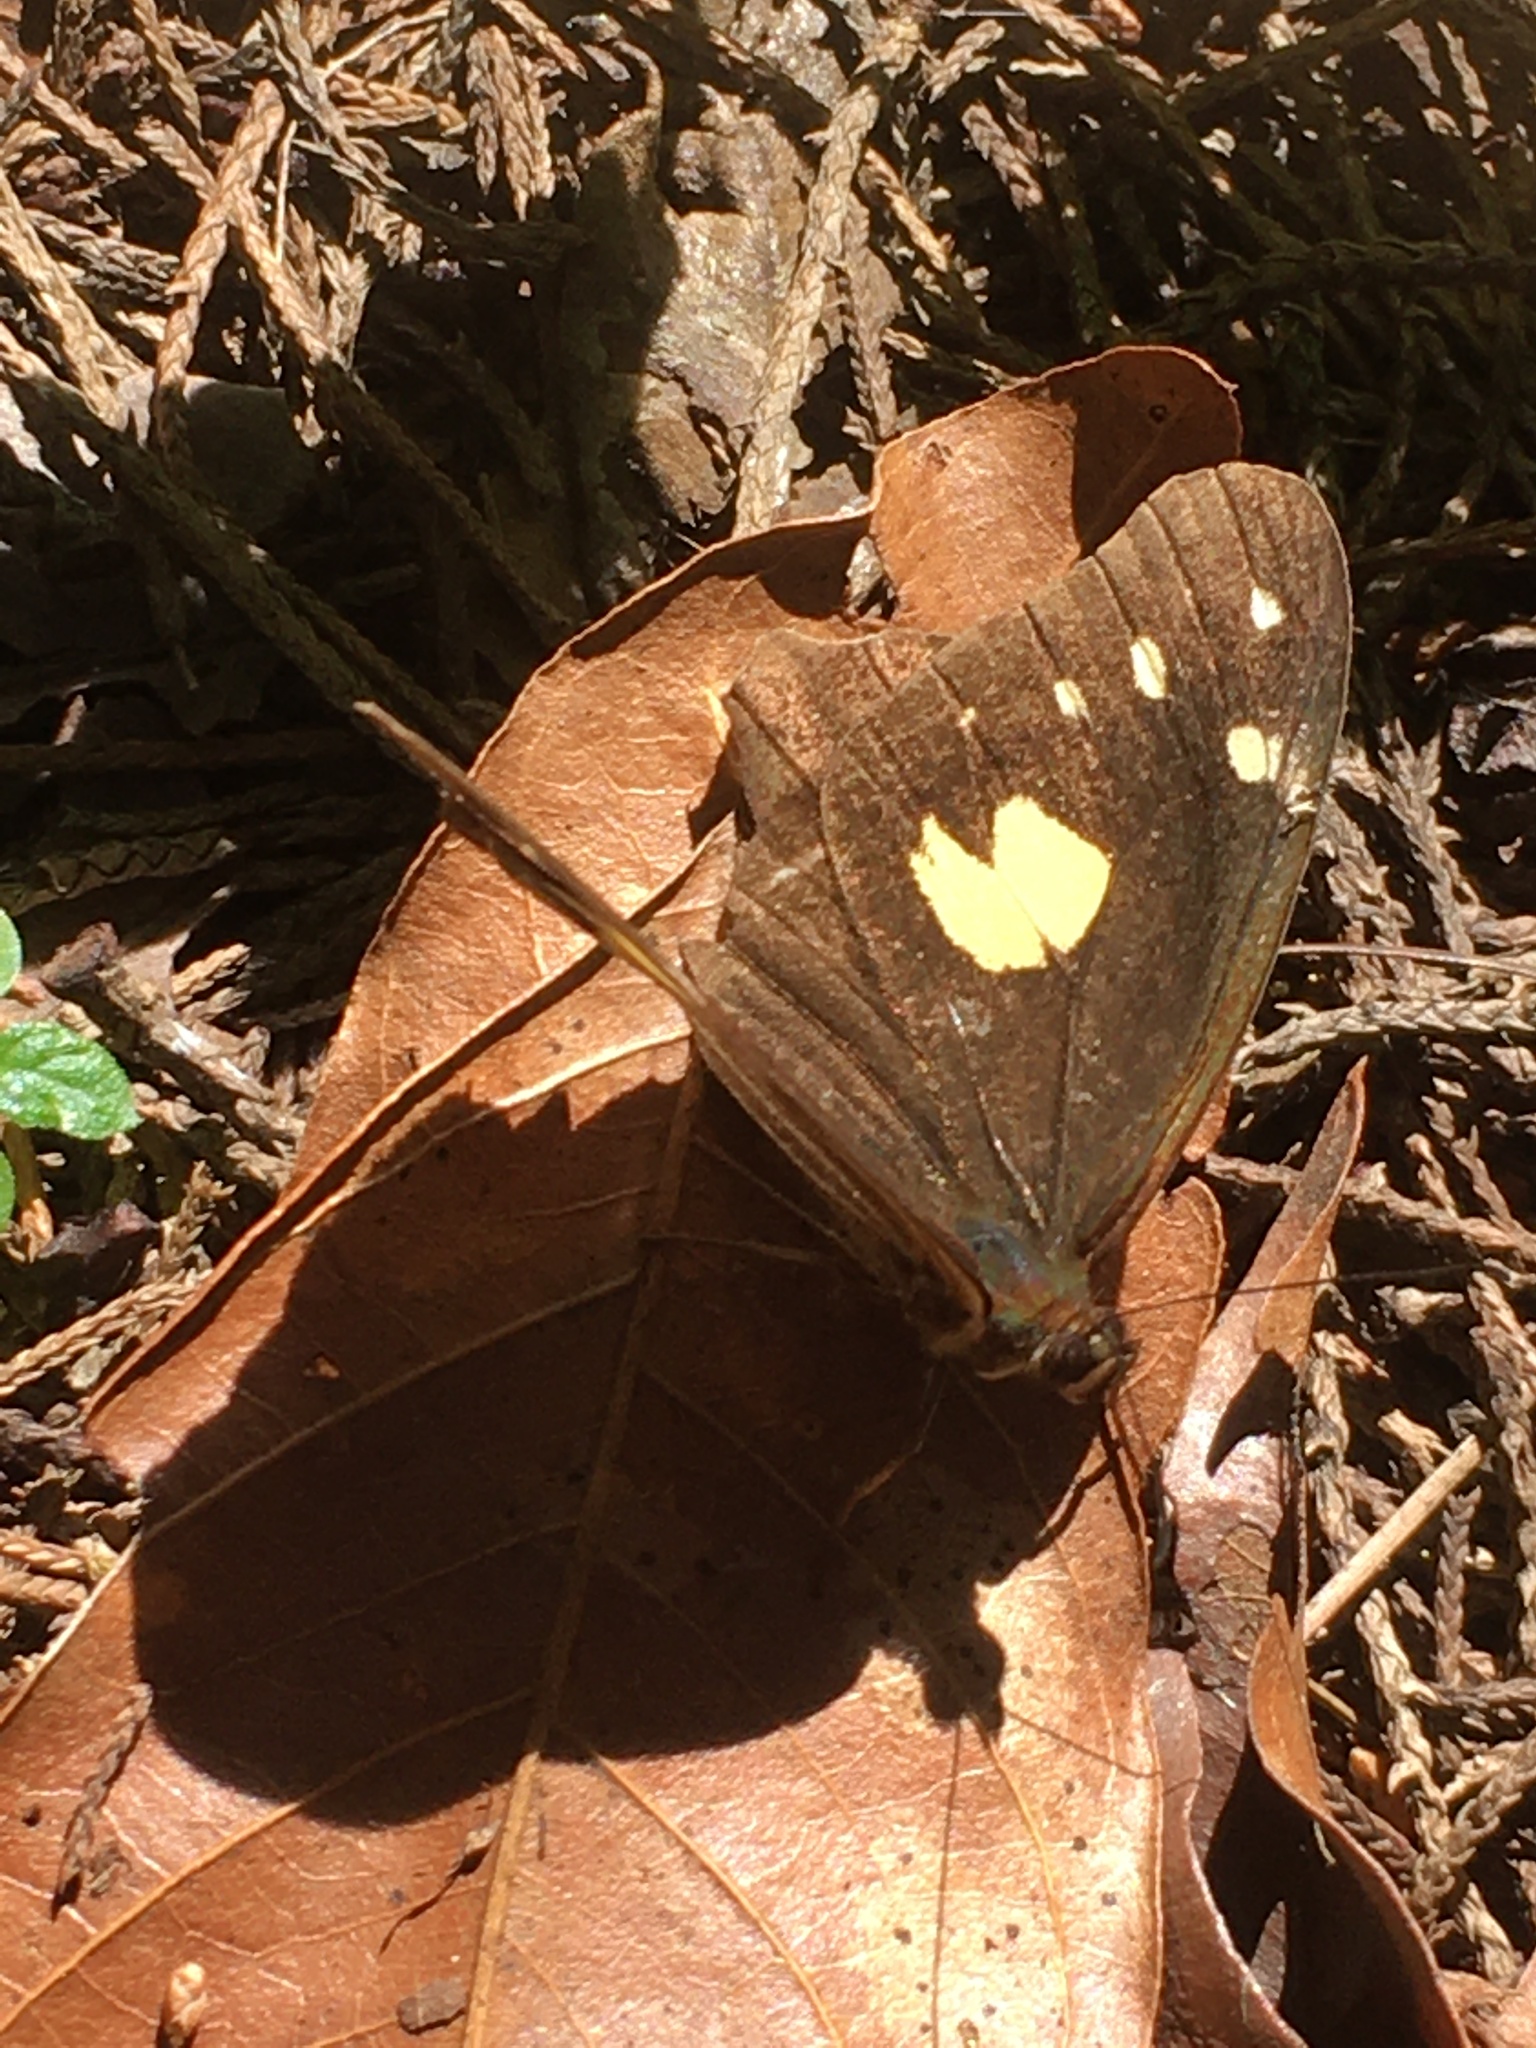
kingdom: Animalia
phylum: Arthropoda
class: Insecta
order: Lepidoptera
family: Nymphalidae
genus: Oxeoschistus
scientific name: Oxeoschistus tauropolis
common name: Starred oxeo
